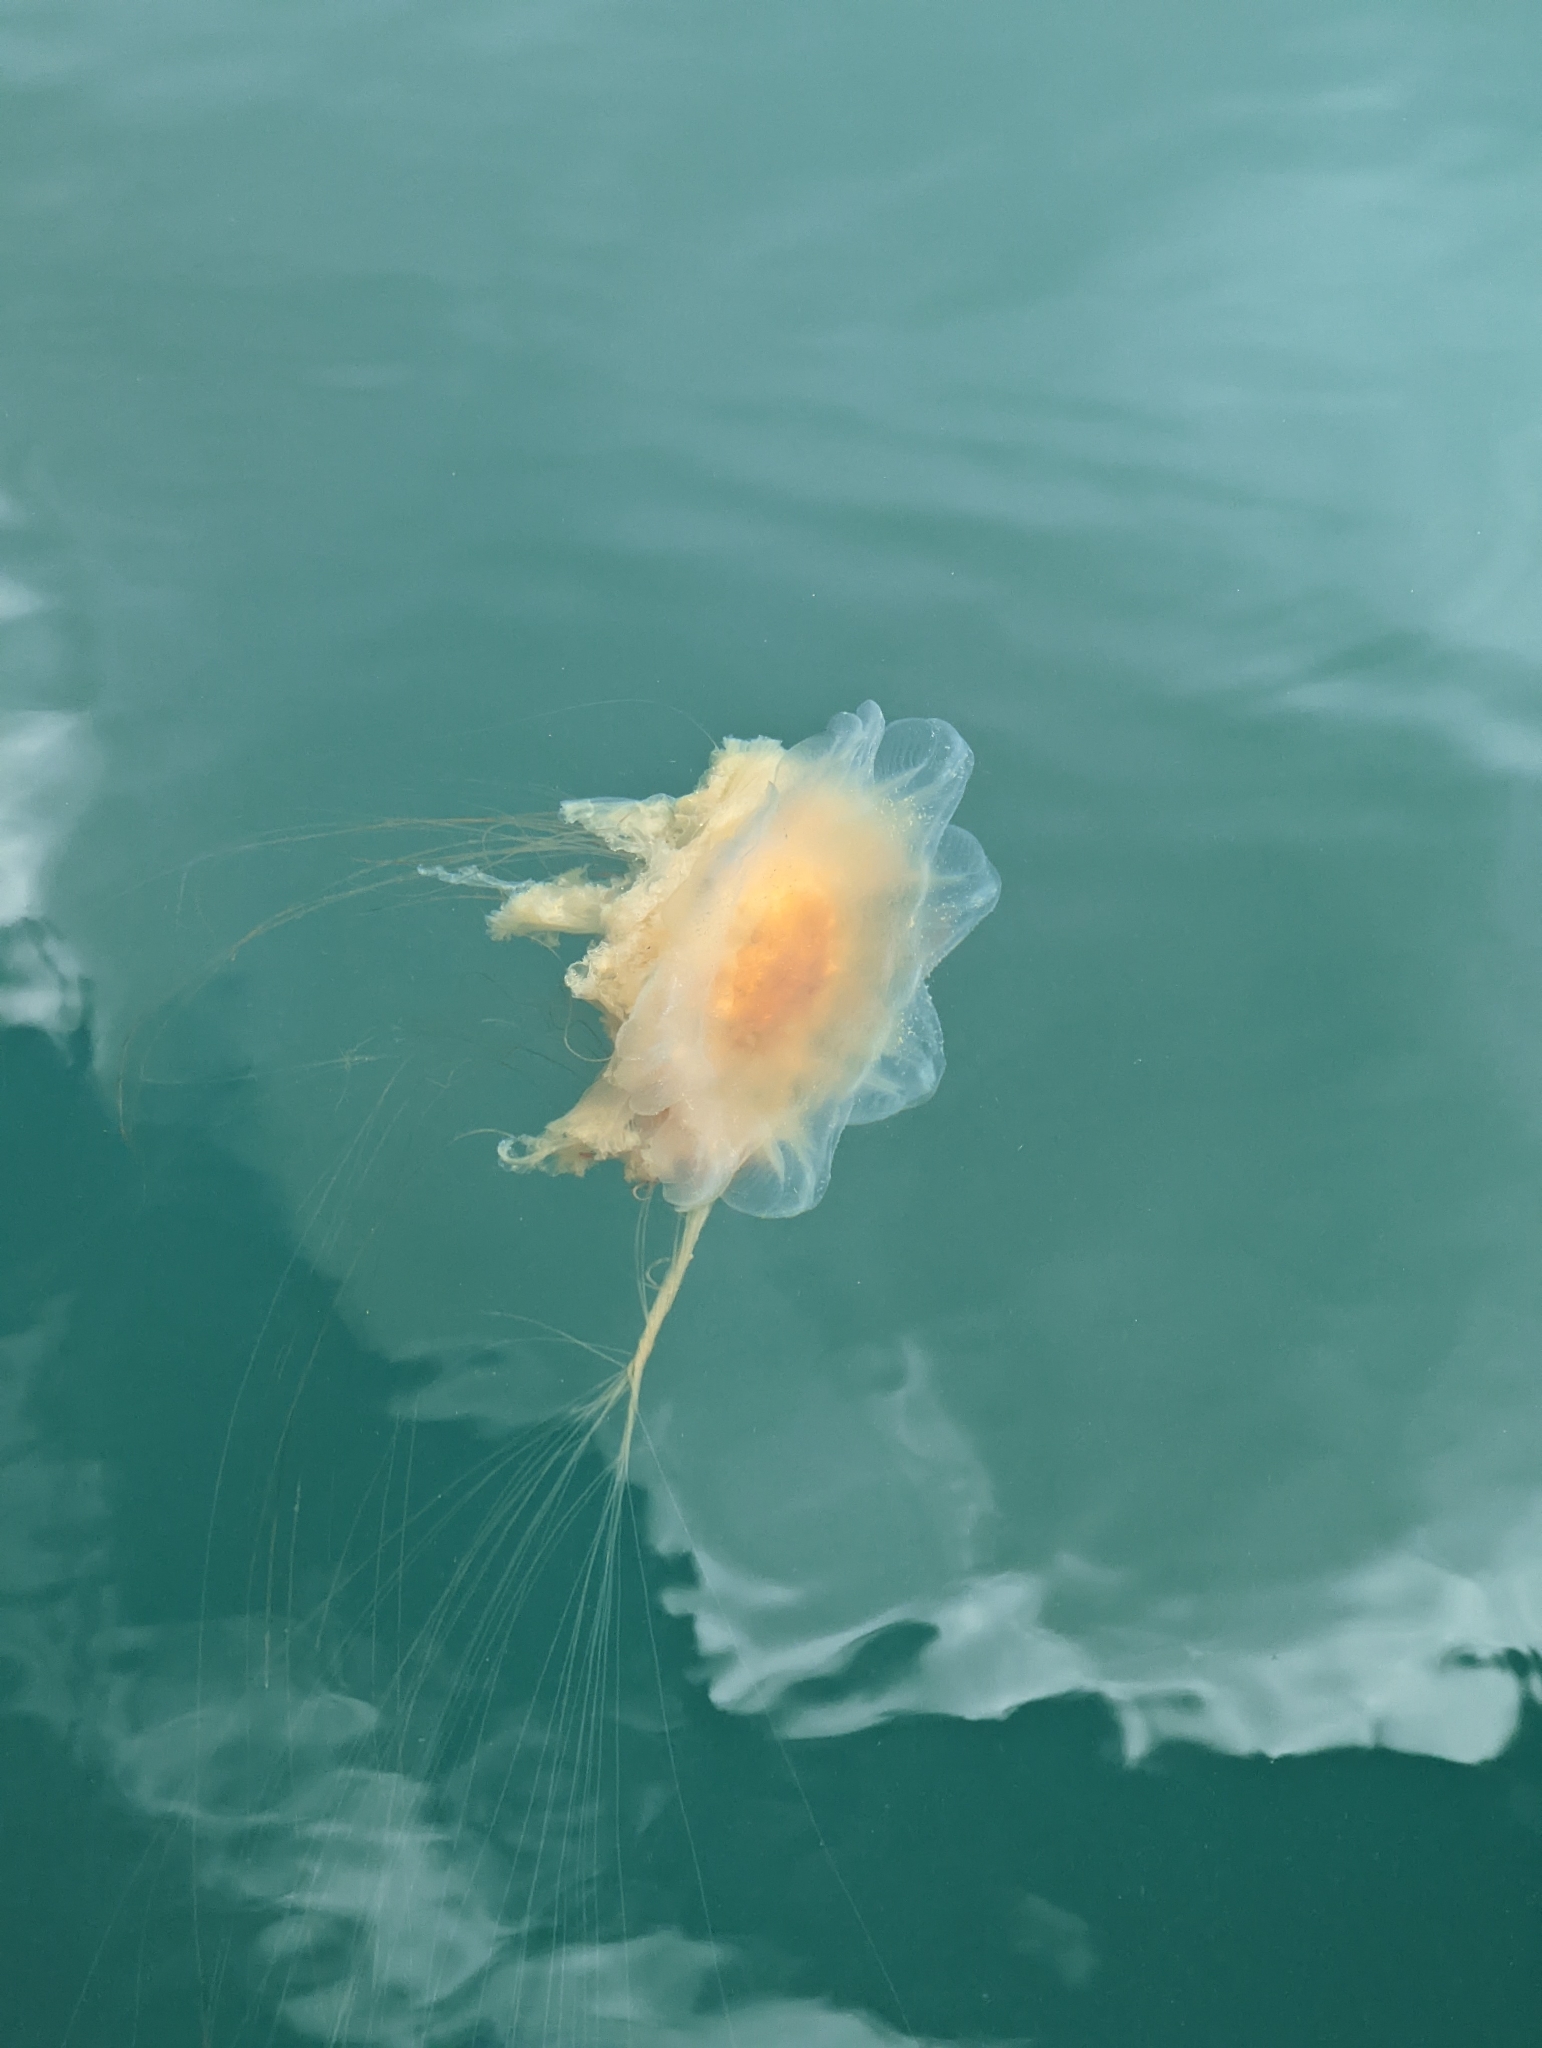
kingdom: Animalia
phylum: Cnidaria
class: Scyphozoa
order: Semaeostomeae
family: Cyaneidae
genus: Cyanea
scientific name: Cyanea ferruginea
